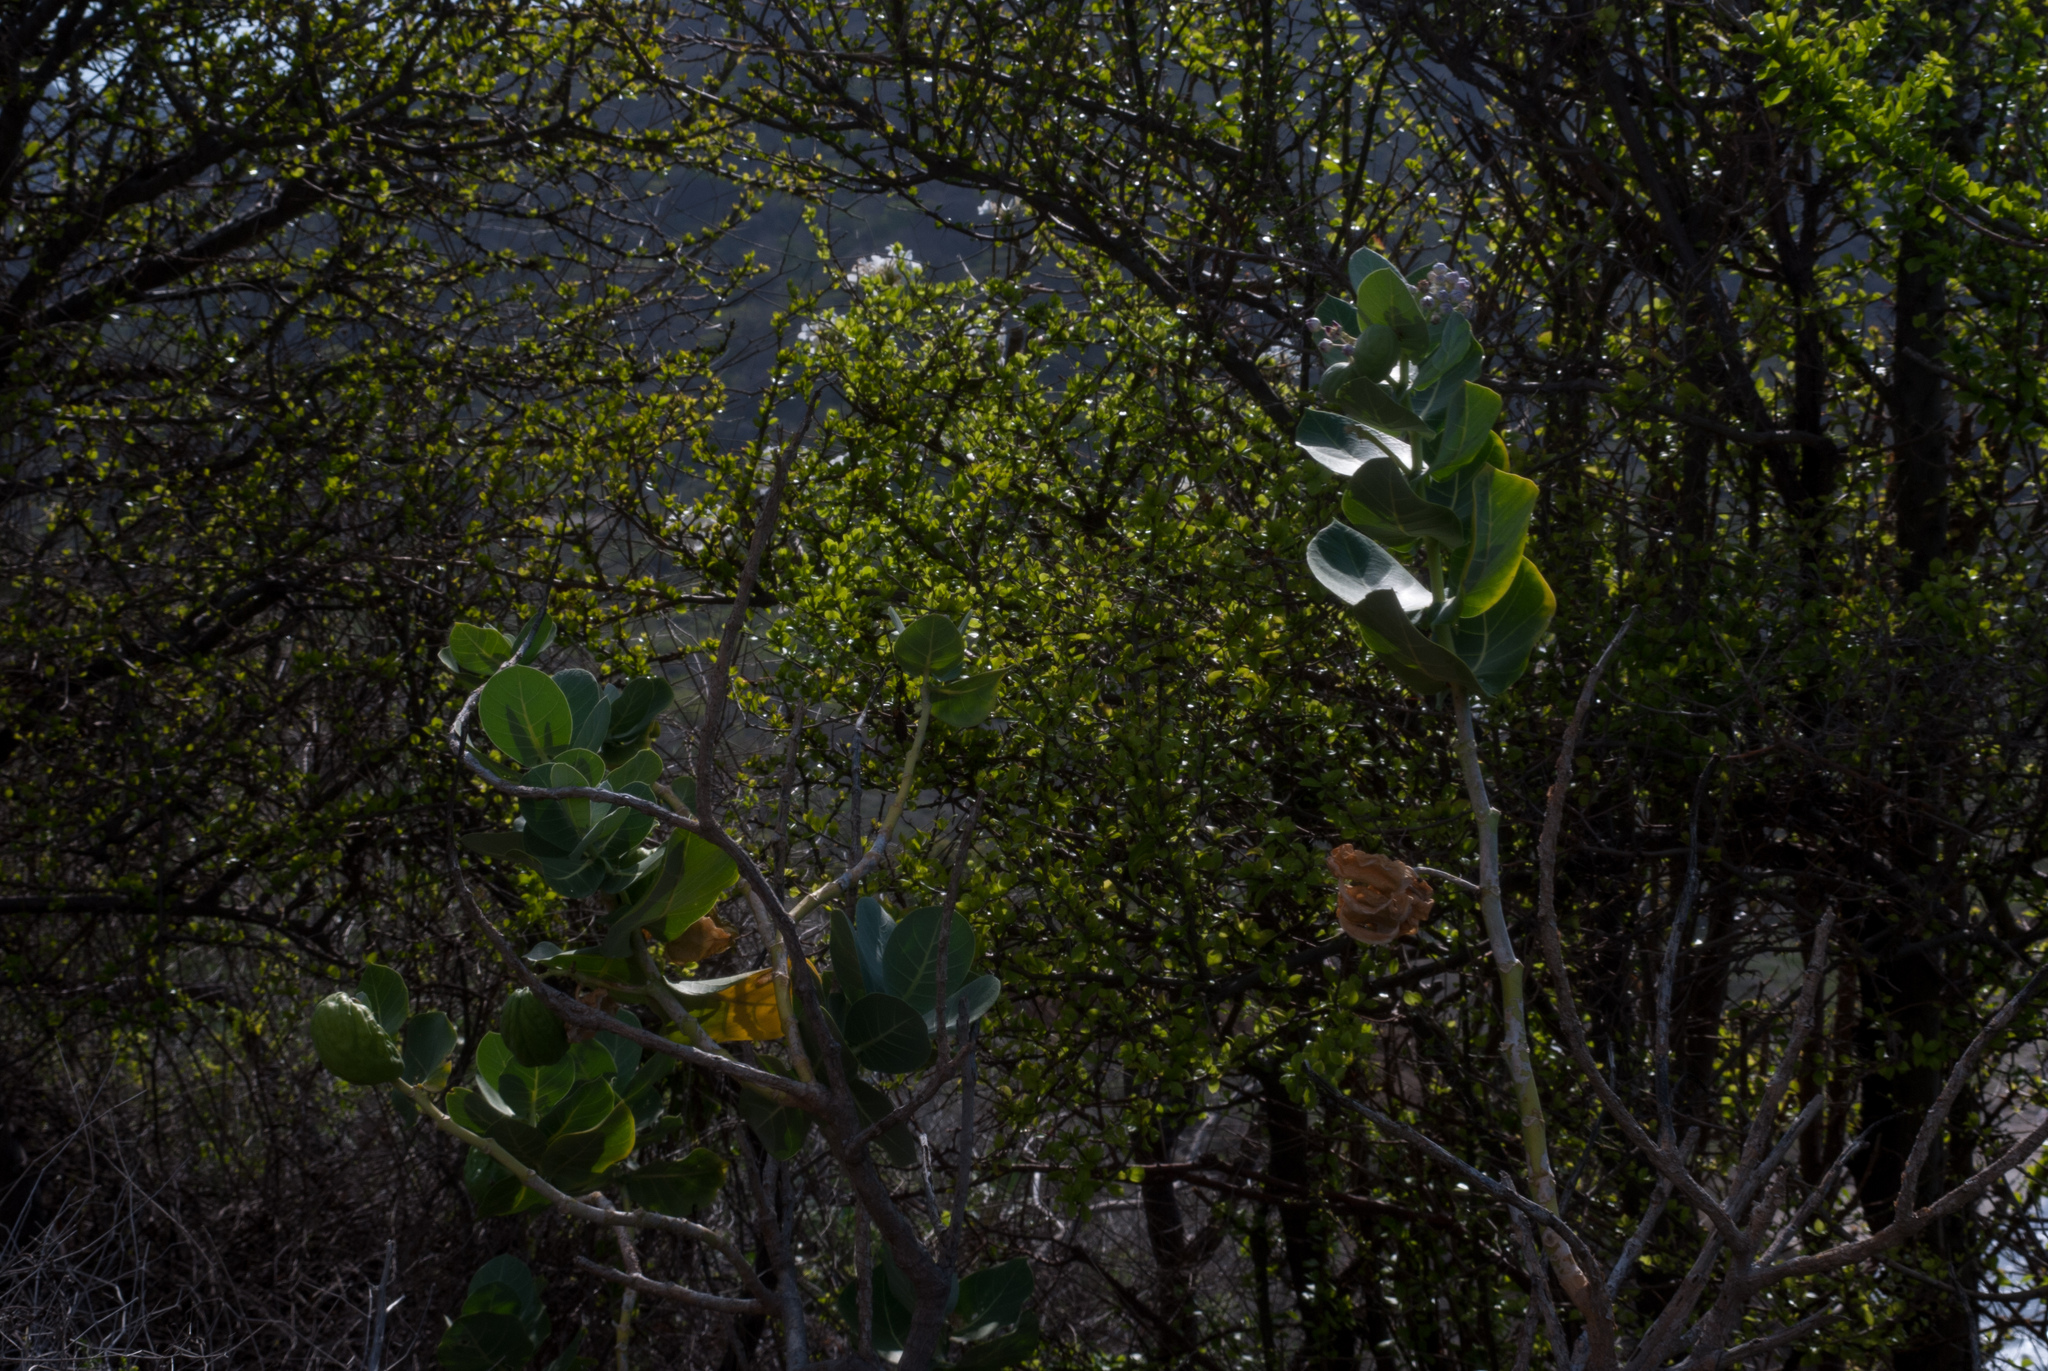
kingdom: Plantae
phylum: Tracheophyta
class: Magnoliopsida
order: Gentianales
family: Apocynaceae
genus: Calotropis
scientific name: Calotropis procera
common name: Roostertree
